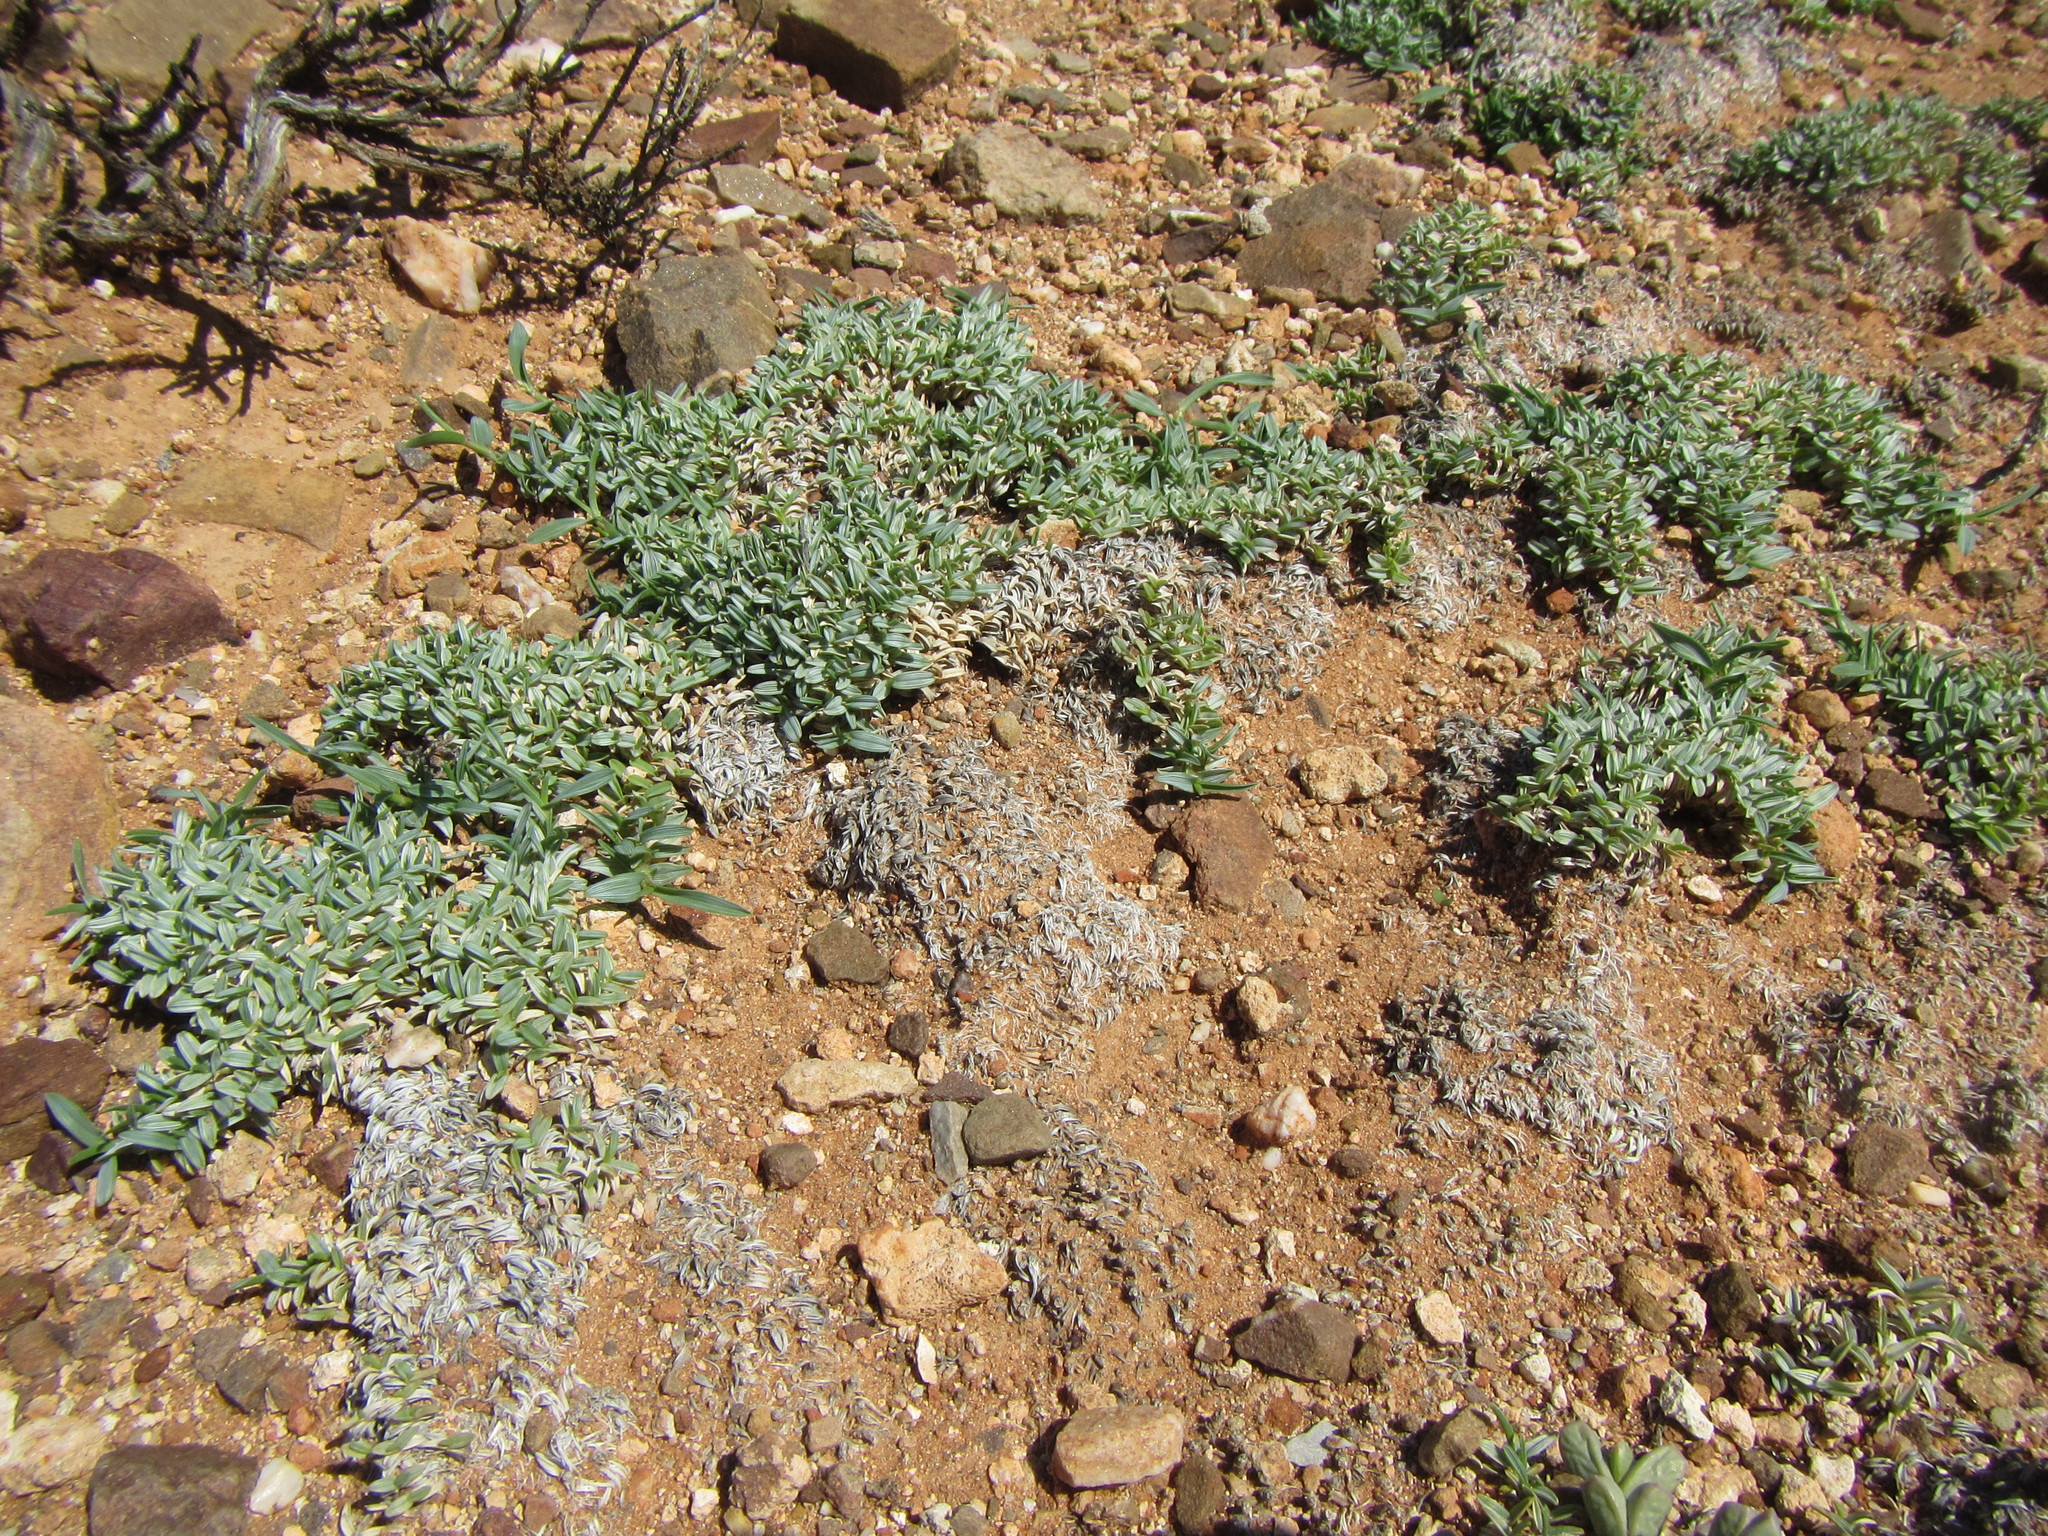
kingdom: Plantae
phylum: Tracheophyta
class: Liliopsida
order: Poales
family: Poaceae
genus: Eragrostis
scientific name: Eragrostis bergiana
